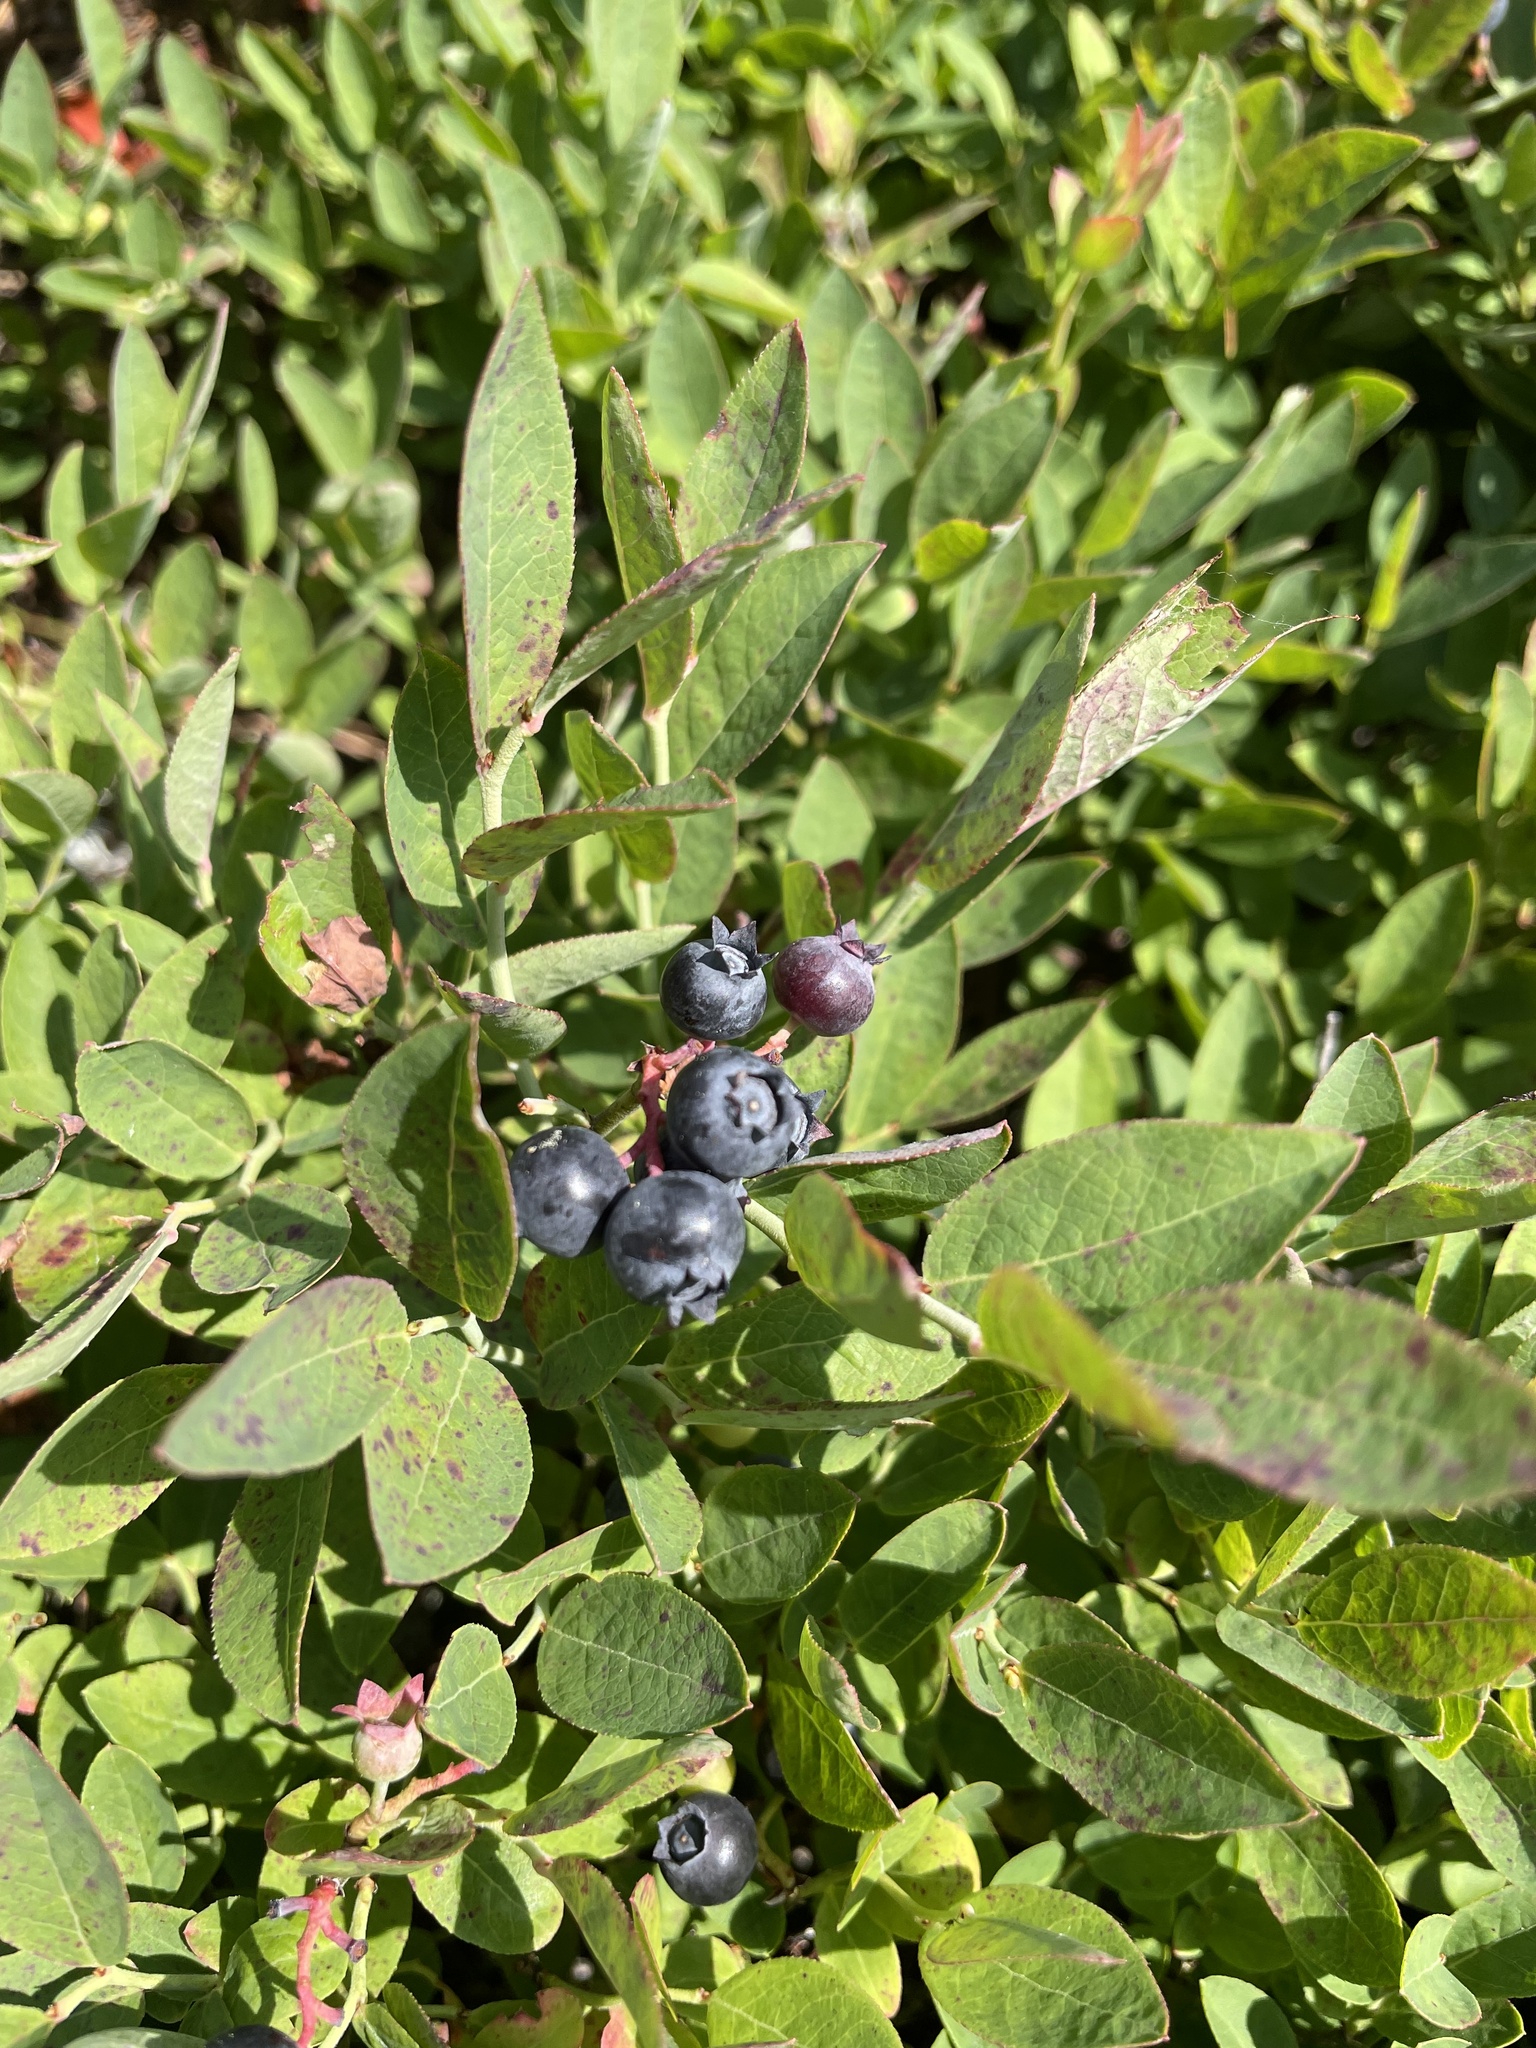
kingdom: Plantae
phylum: Tracheophyta
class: Magnoliopsida
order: Ericales
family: Ericaceae
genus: Vaccinium
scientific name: Vaccinium angustifolium
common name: Early lowbush blueberry
